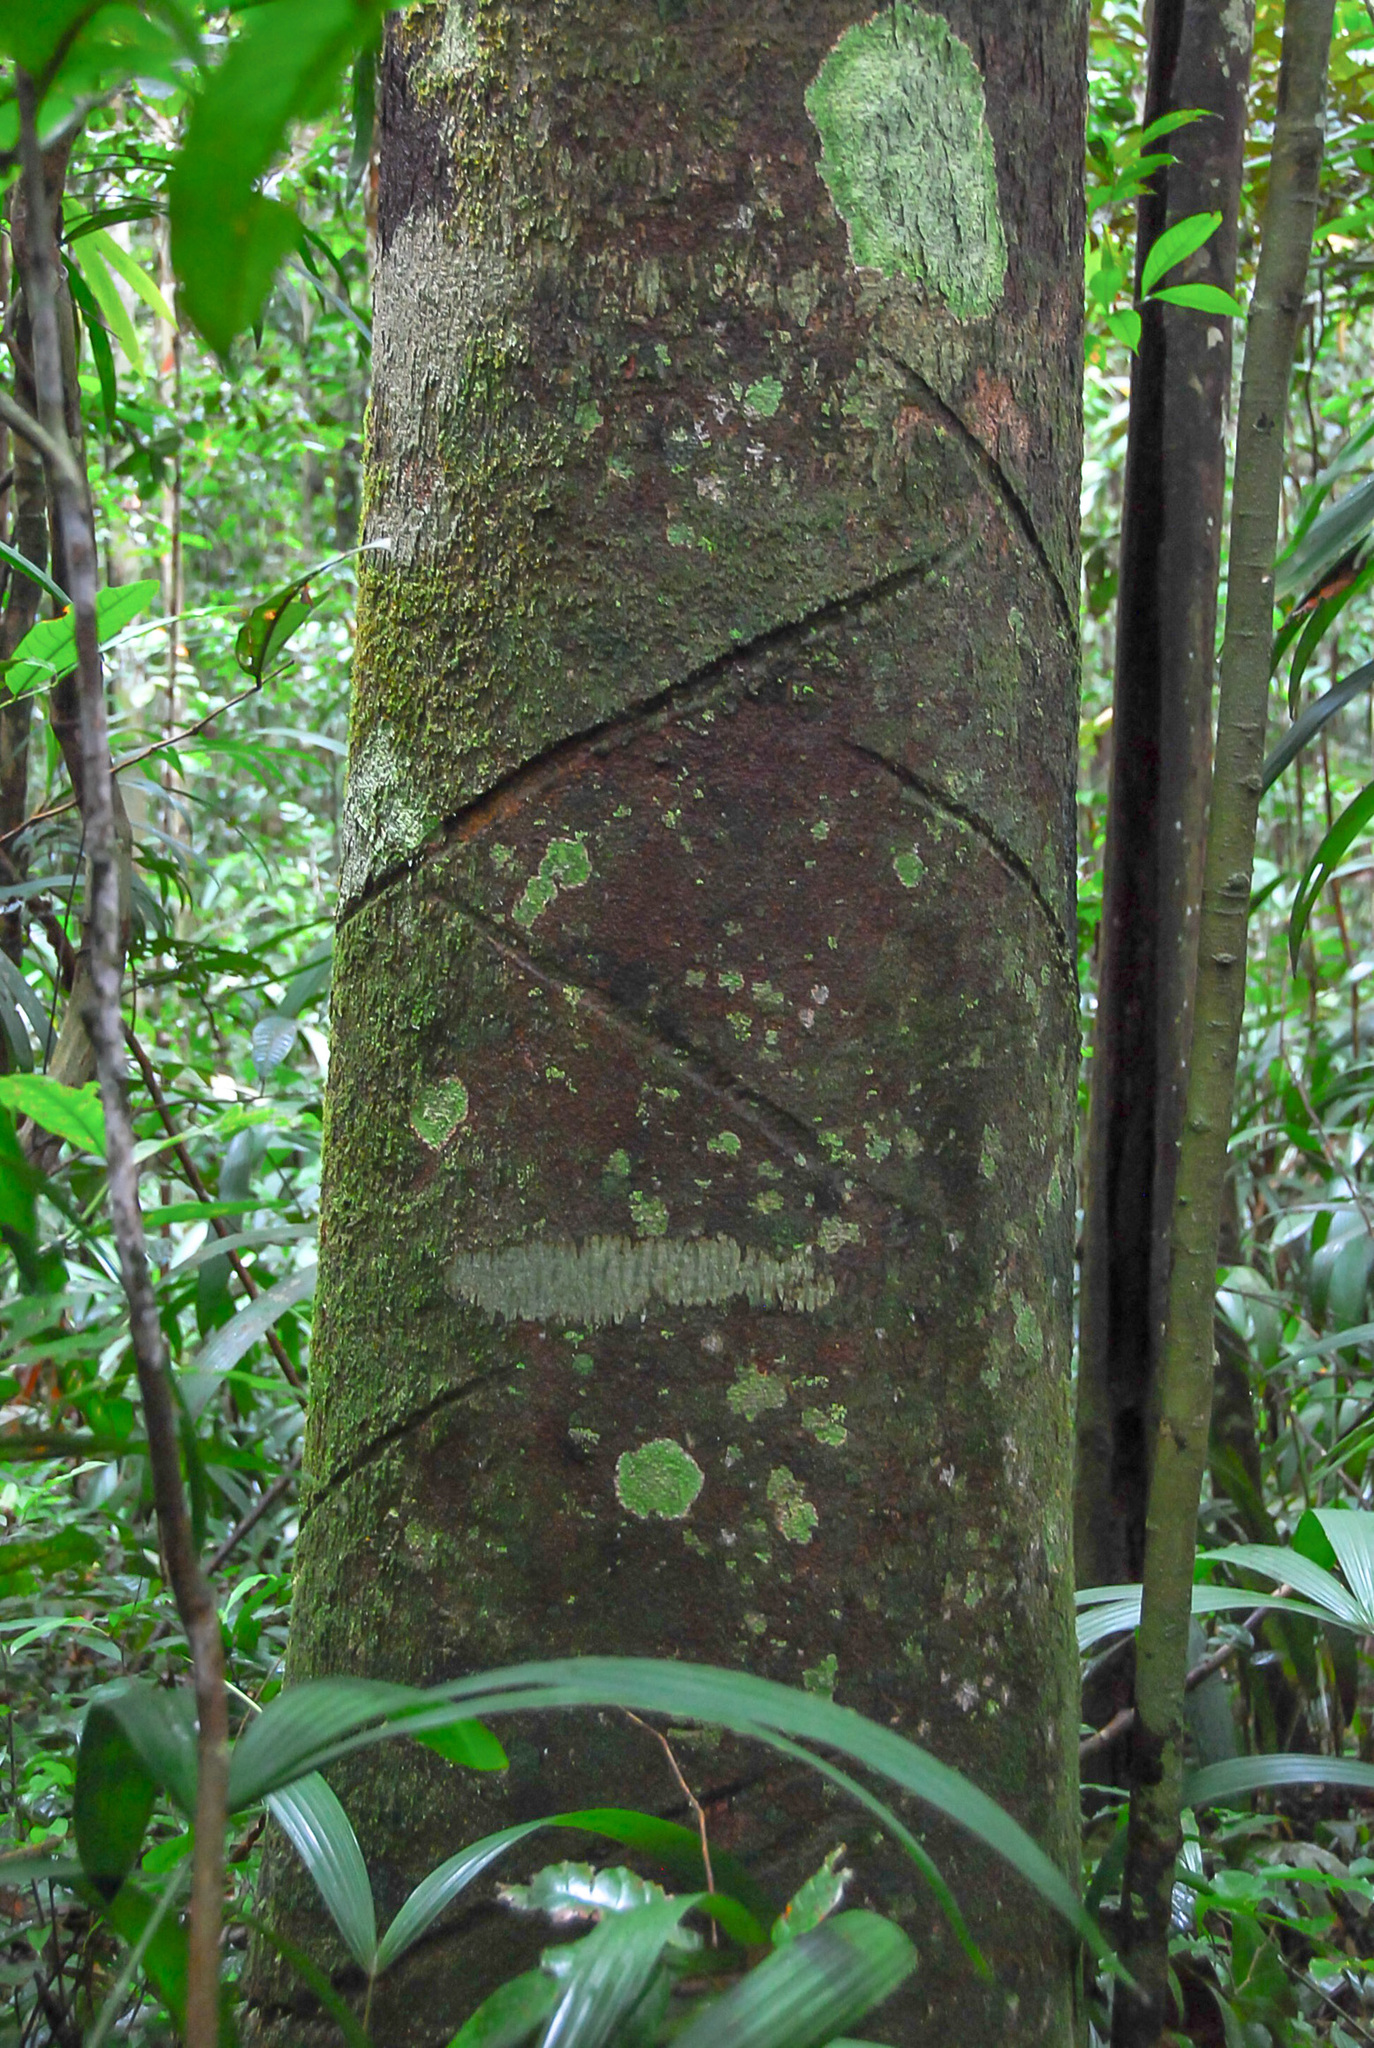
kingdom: Plantae
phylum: Tracheophyta
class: Magnoliopsida
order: Gentianales
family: Apocynaceae
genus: Couma
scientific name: Couma utilis
